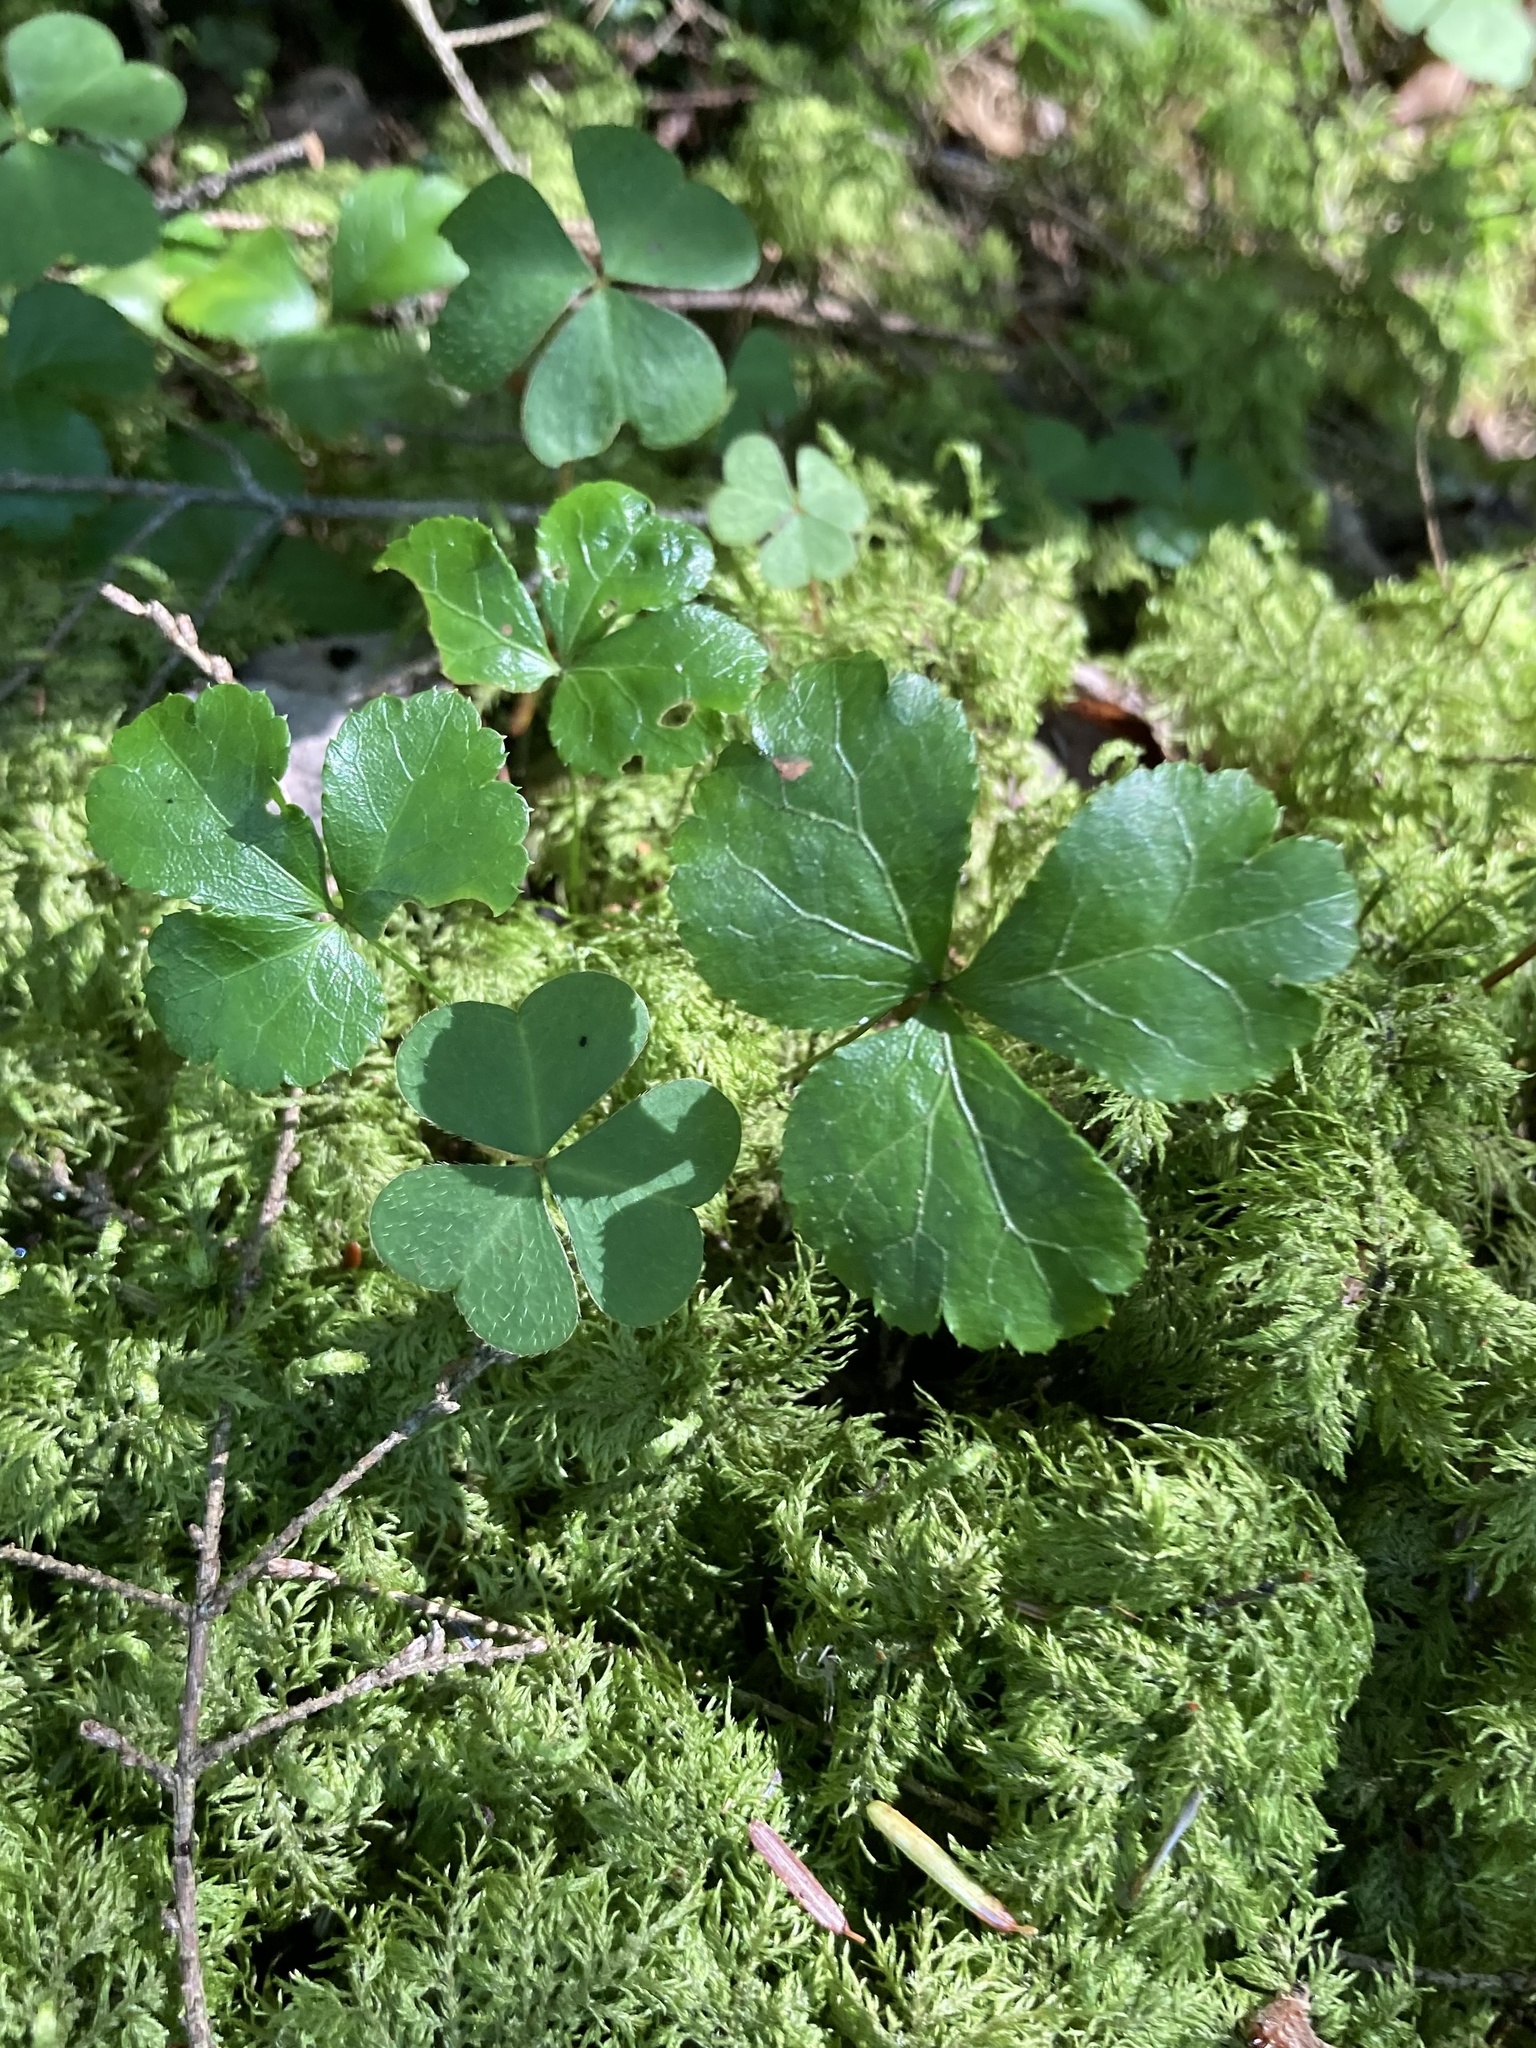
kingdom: Plantae
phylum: Tracheophyta
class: Magnoliopsida
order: Ranunculales
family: Ranunculaceae
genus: Coptis
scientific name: Coptis trifolia
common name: Canker-root
